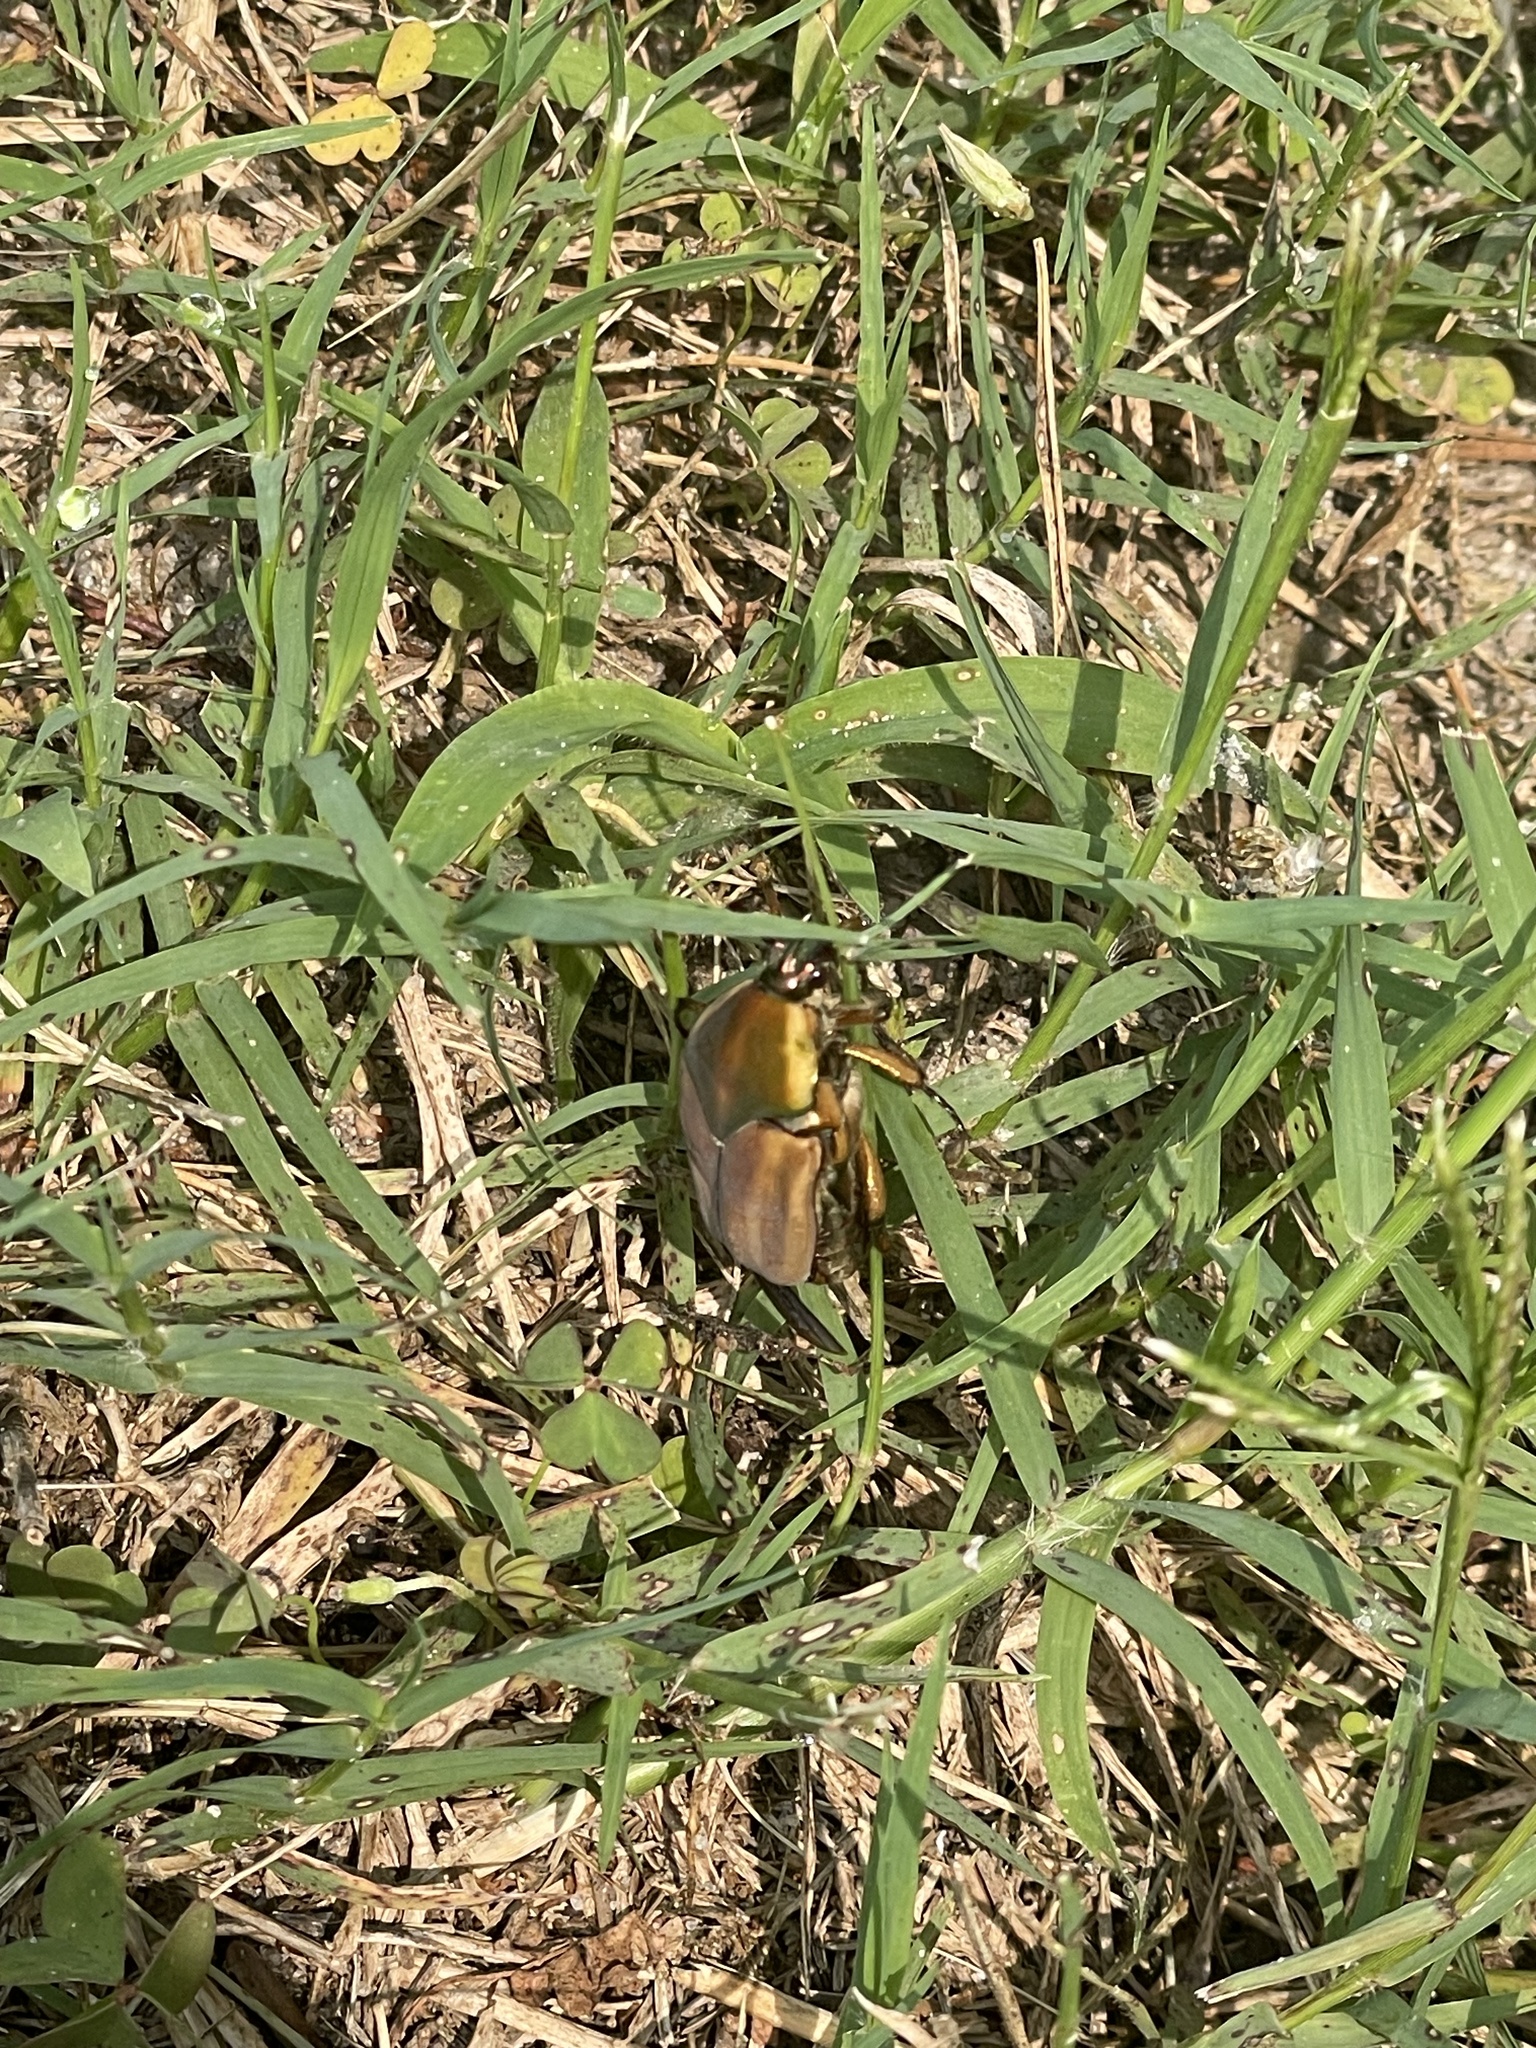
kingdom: Animalia
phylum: Arthropoda
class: Insecta
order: Coleoptera
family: Scarabaeidae
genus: Cotinis
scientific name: Cotinis nitida
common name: Common green june beetle
